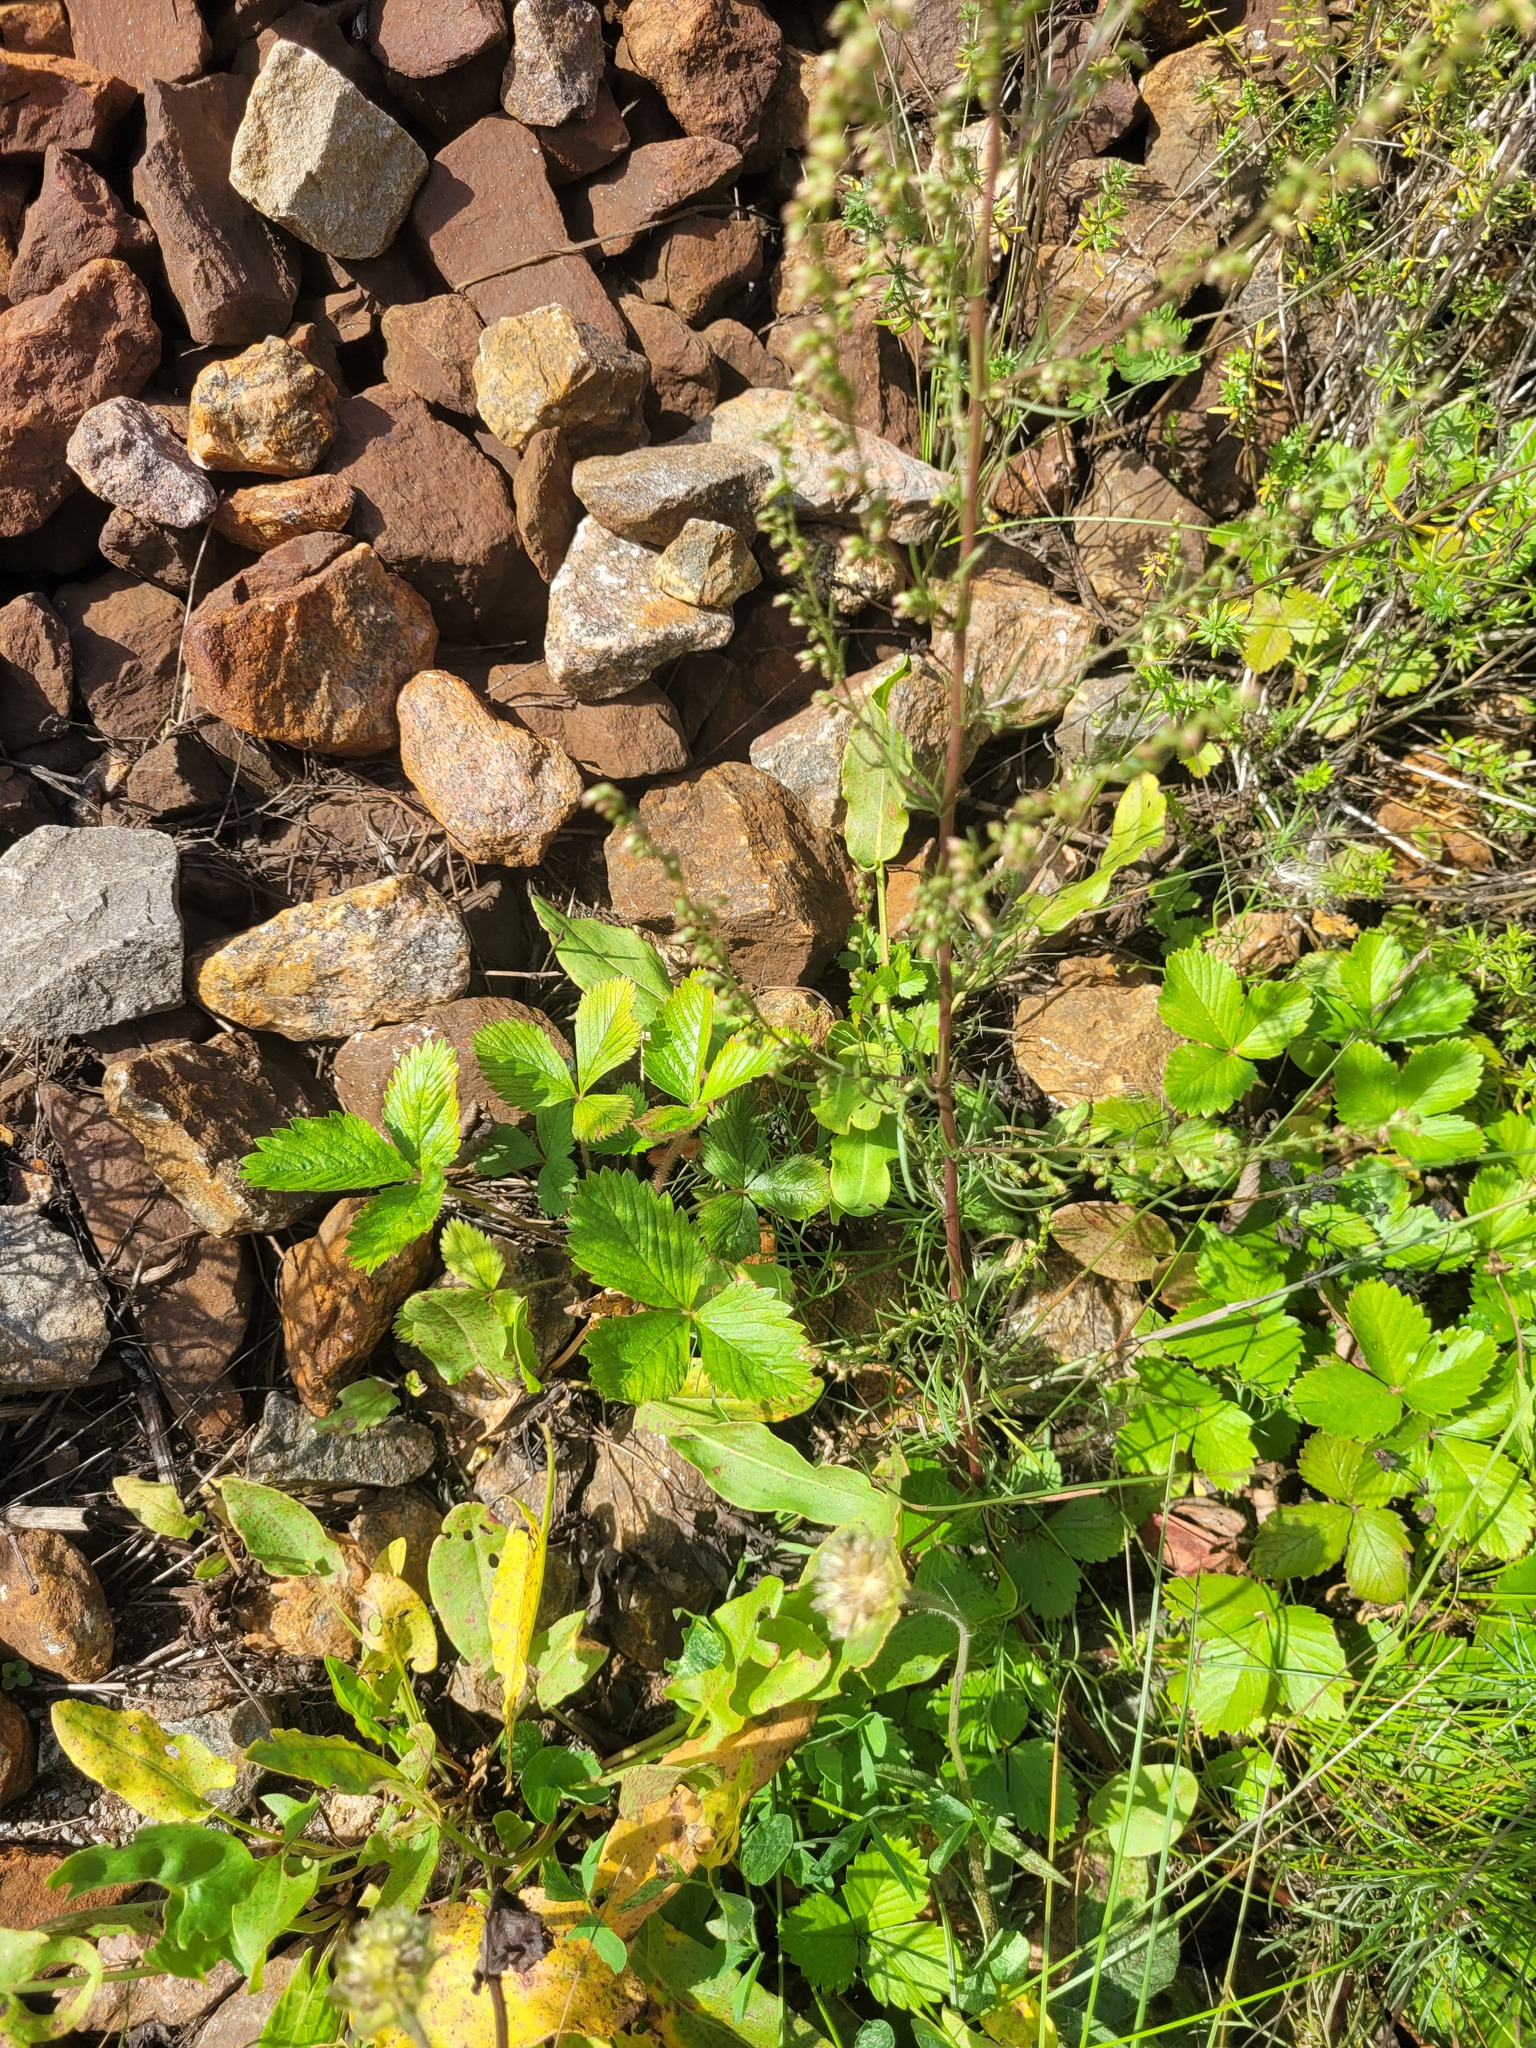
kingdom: Plantae
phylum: Tracheophyta
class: Magnoliopsida
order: Rosales
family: Rosaceae
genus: Fragaria
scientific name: Fragaria viridis
